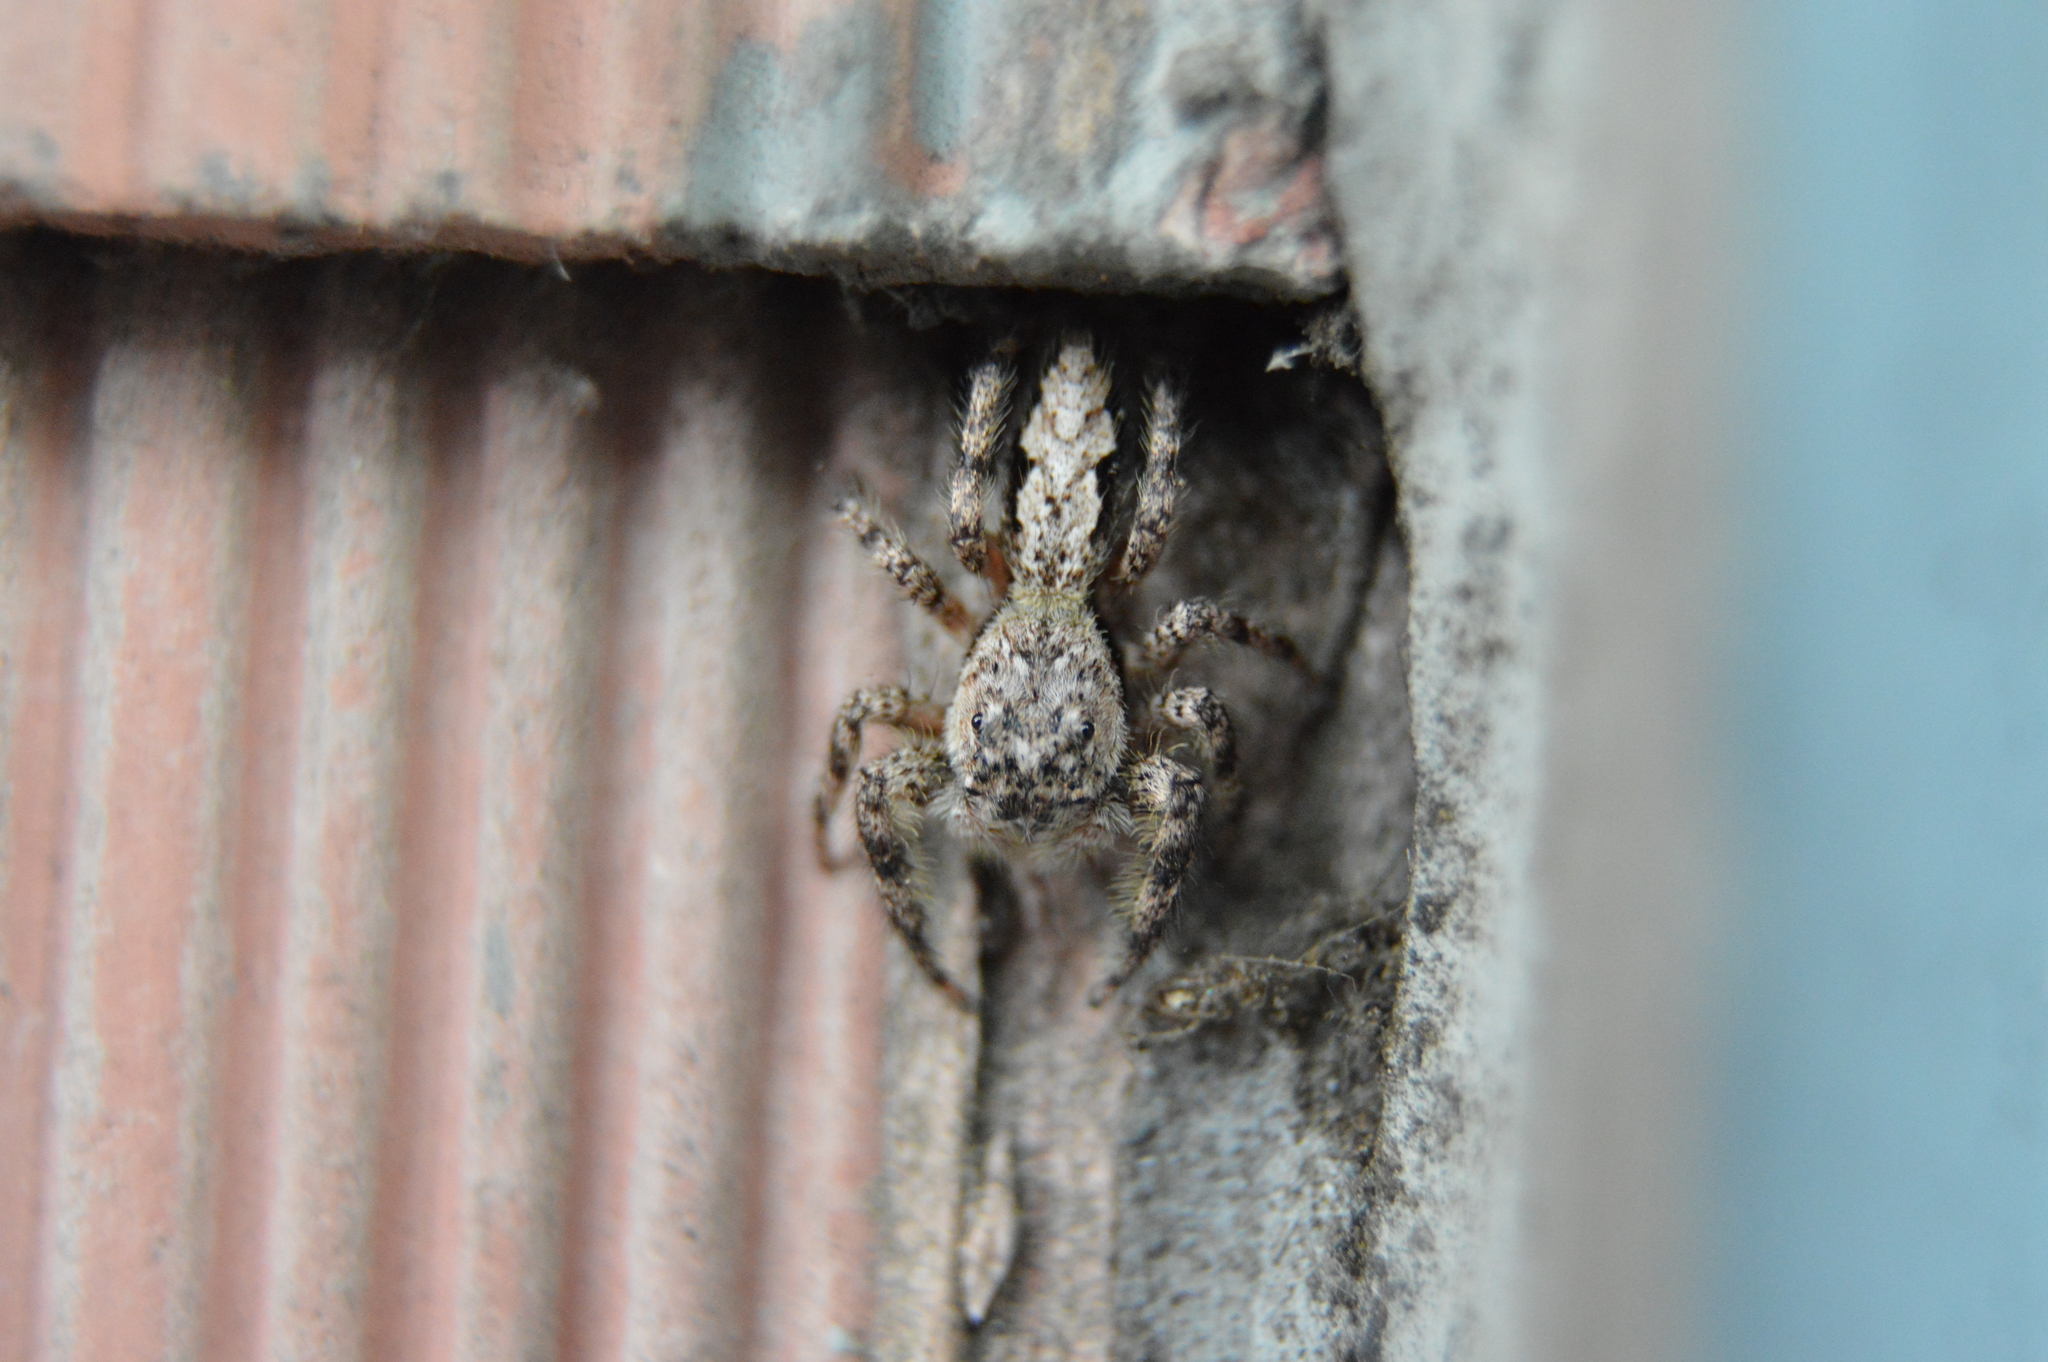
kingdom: Animalia
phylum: Arthropoda
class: Arachnida
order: Araneae
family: Salticidae
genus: Platycryptus
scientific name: Platycryptus undatus
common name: Tan jumping spider
